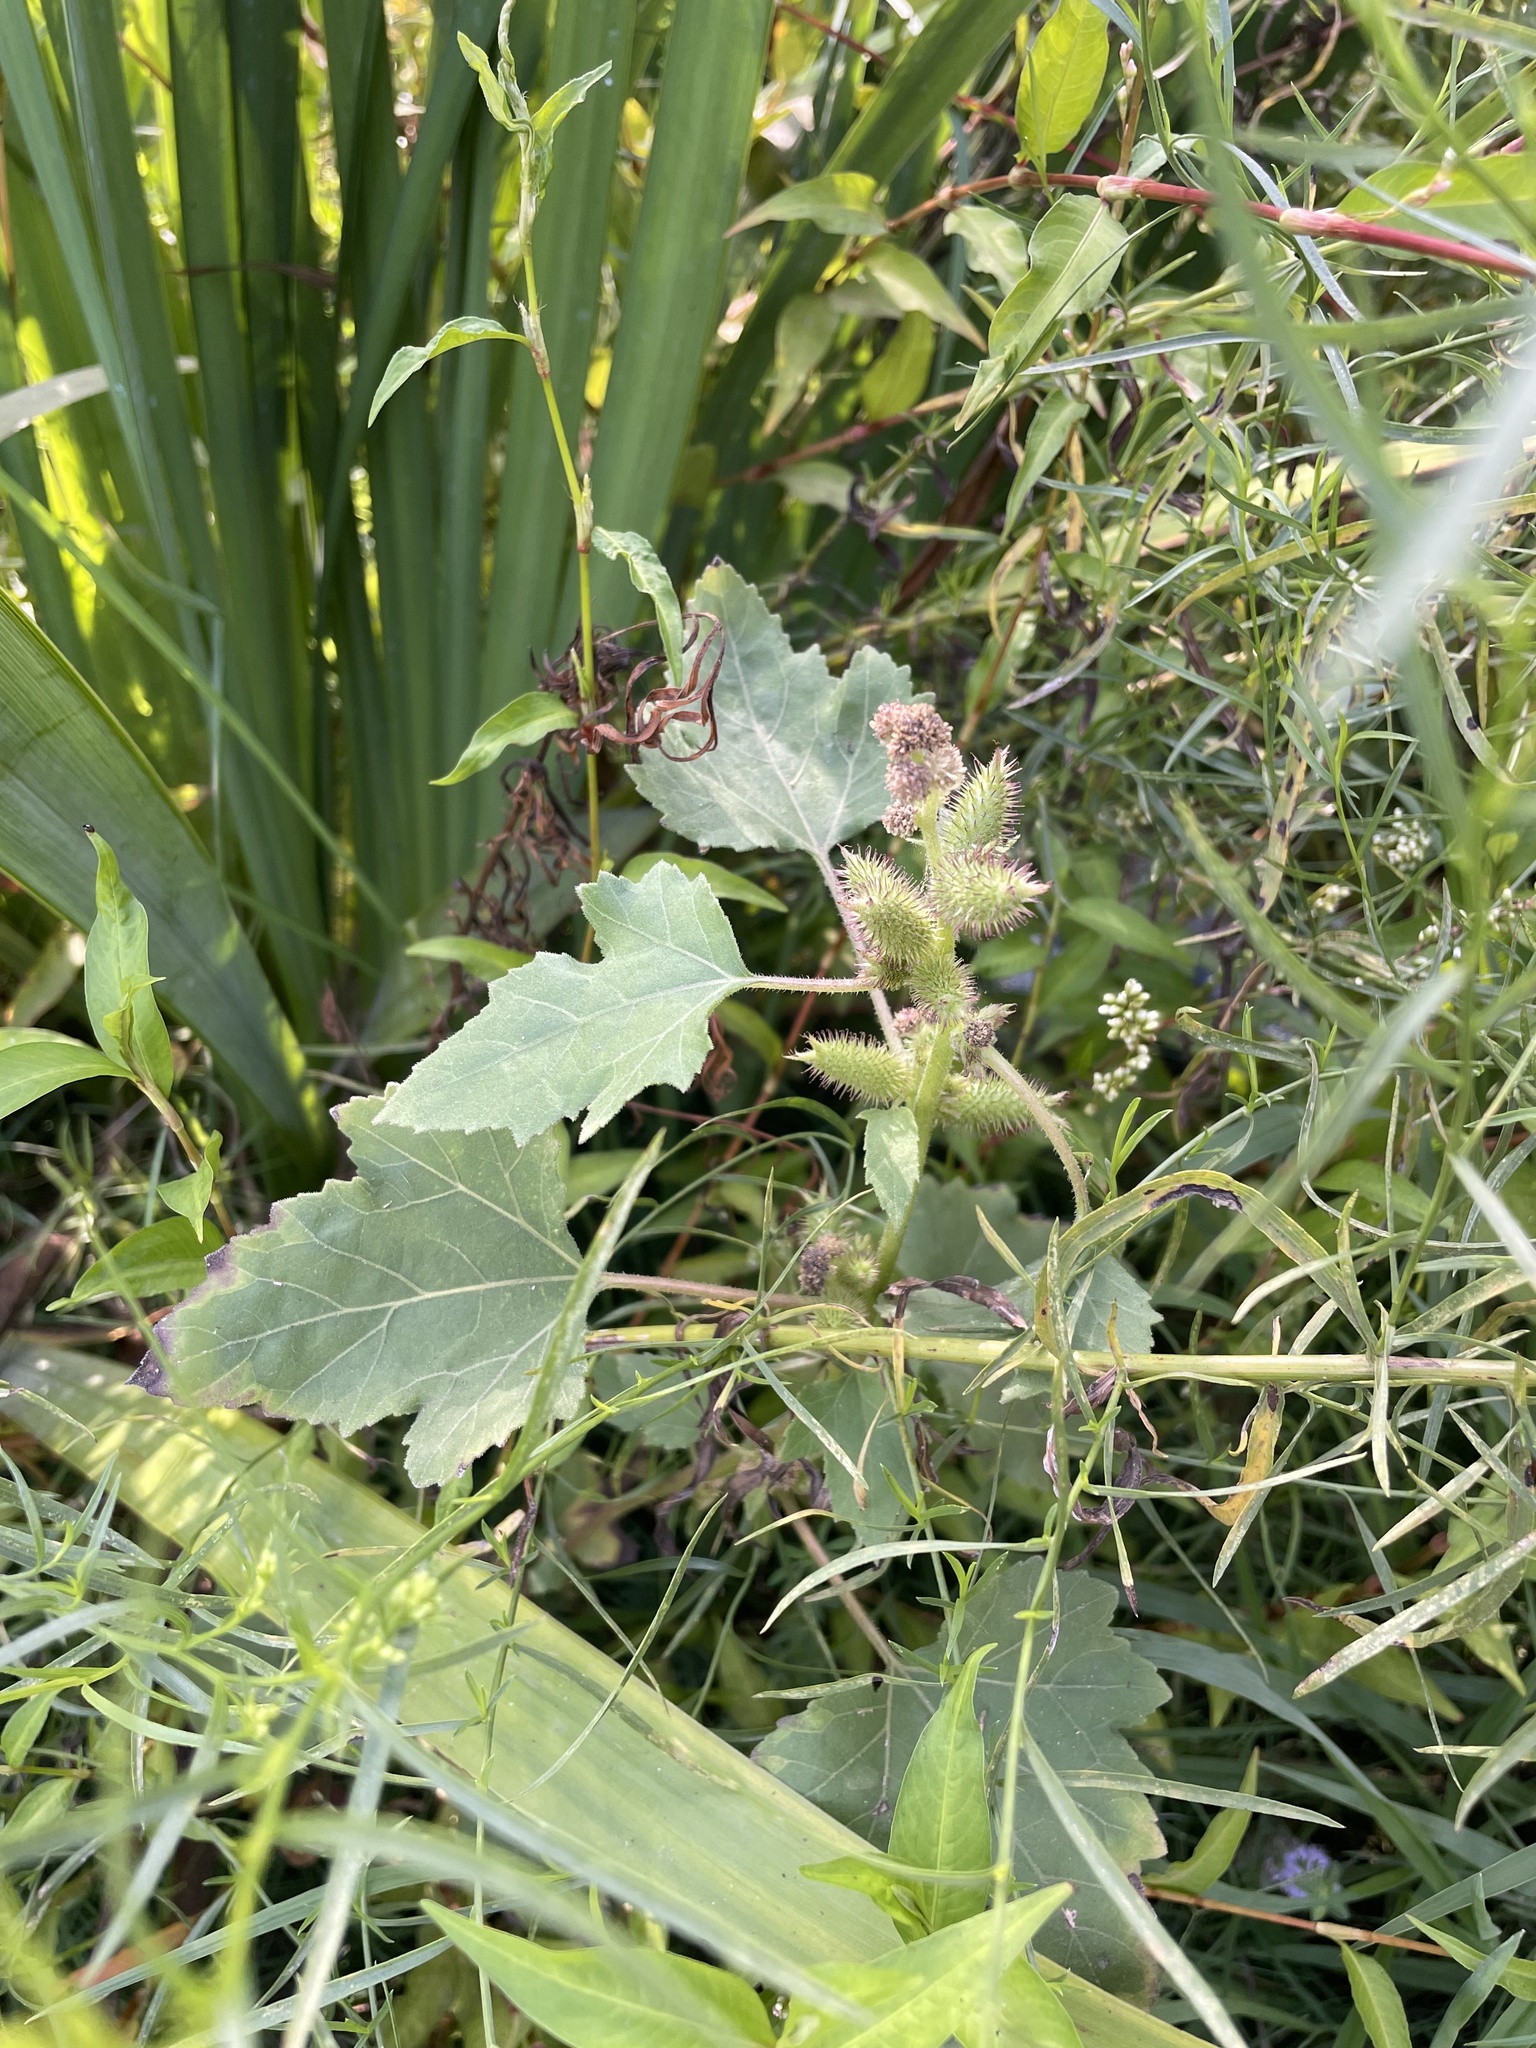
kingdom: Plantae
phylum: Tracheophyta
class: Magnoliopsida
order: Asterales
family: Asteraceae
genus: Xanthium
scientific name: Xanthium strumarium
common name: Rough cocklebur
